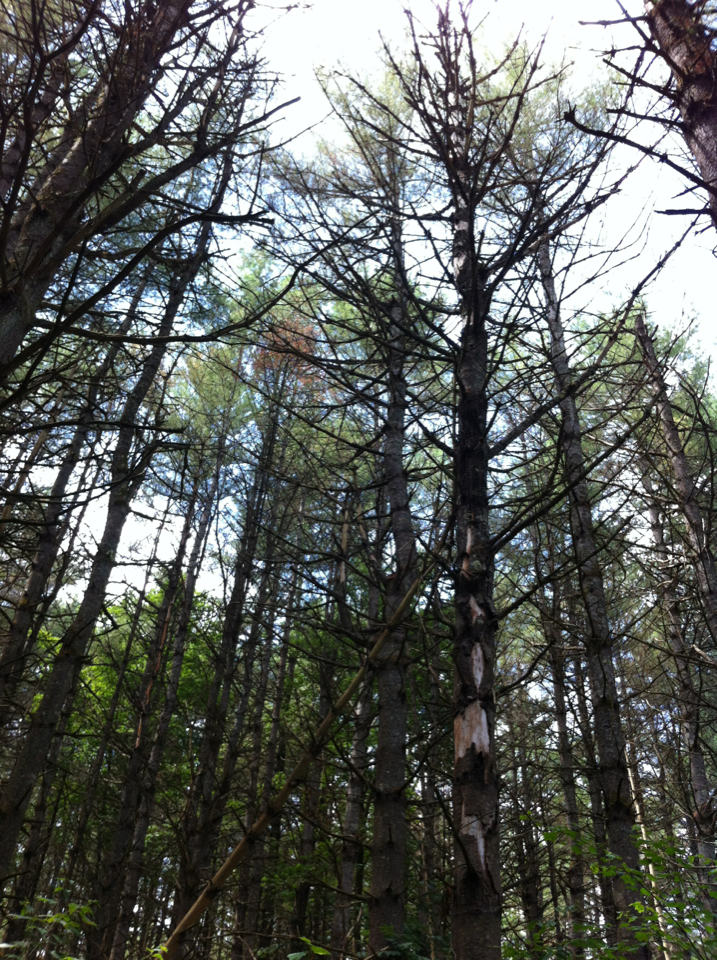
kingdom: Plantae
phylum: Tracheophyta
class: Pinopsida
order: Pinales
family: Pinaceae
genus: Pinus
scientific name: Pinus strobus
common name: Weymouth pine
